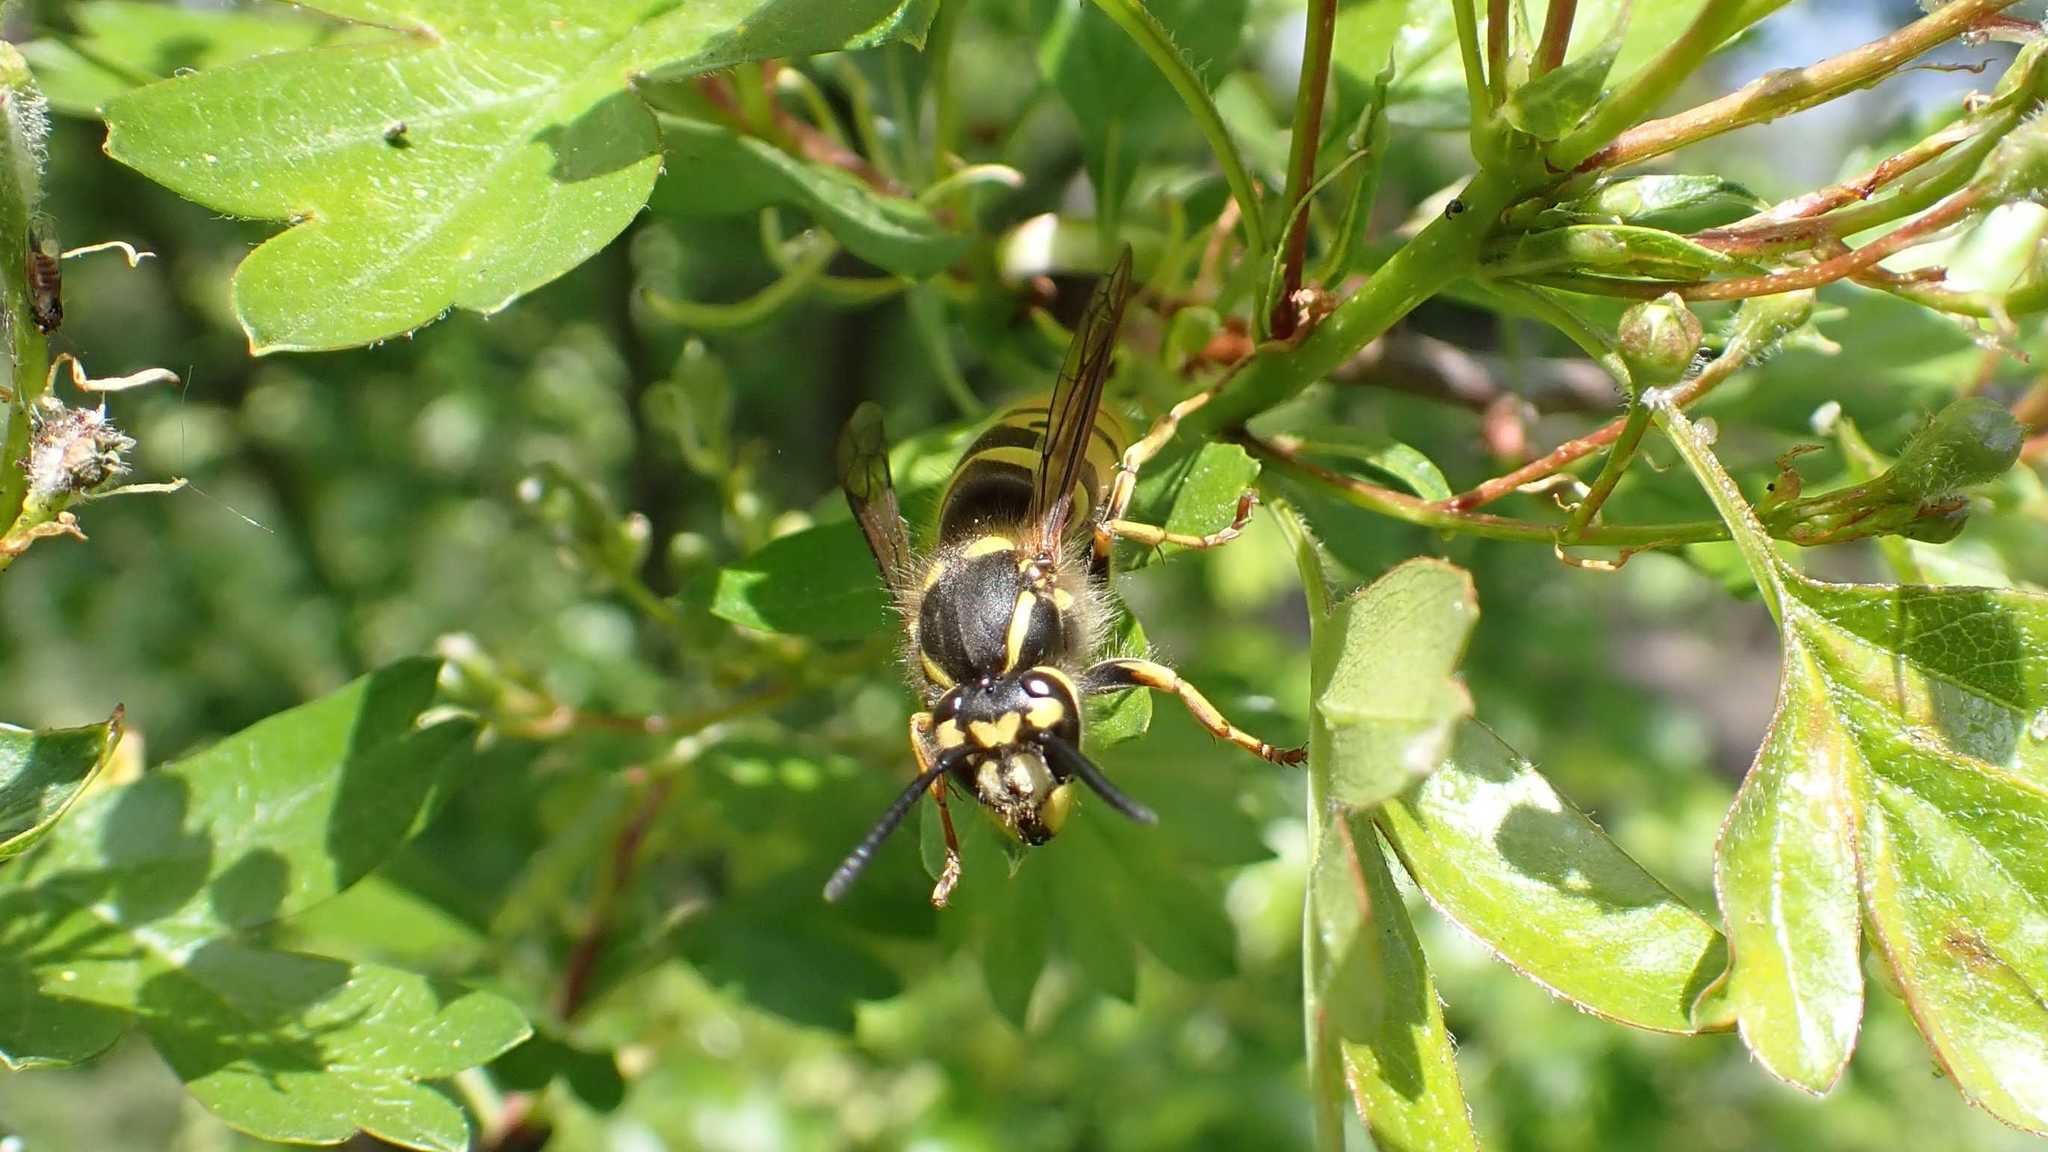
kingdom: Animalia
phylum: Arthropoda
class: Insecta
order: Hymenoptera
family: Vespidae
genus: Vespula
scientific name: Vespula vulgaris
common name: Common wasp
